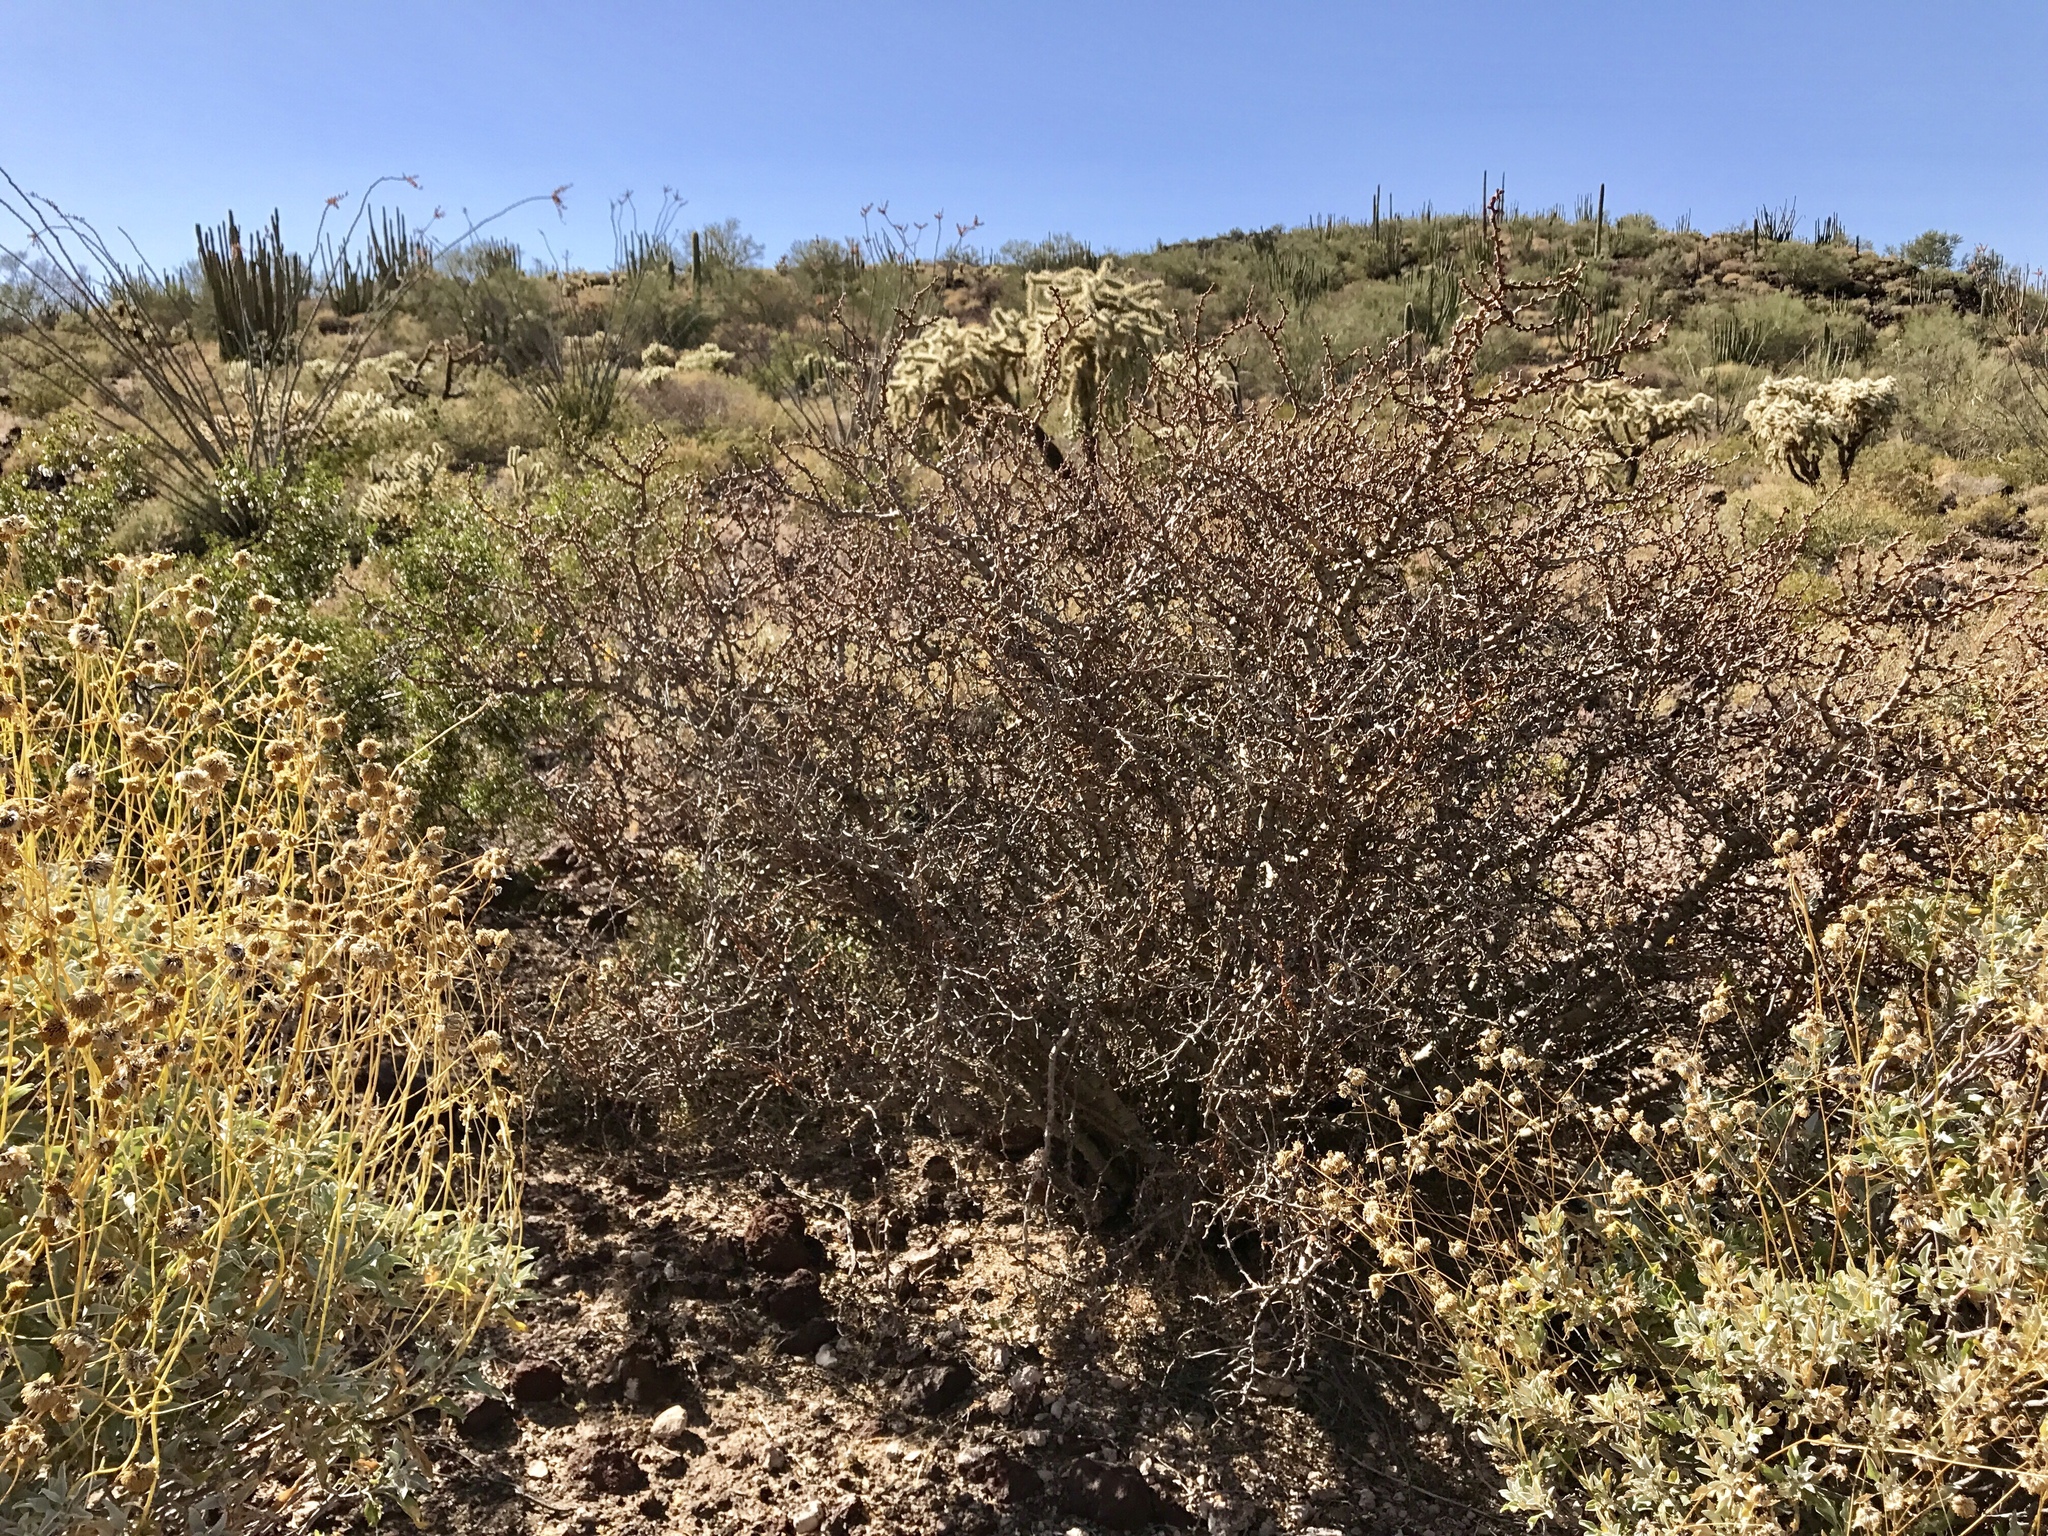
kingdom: Plantae
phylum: Tracheophyta
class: Magnoliopsida
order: Malpighiales
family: Euphorbiaceae
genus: Jatropha
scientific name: Jatropha cuneata
